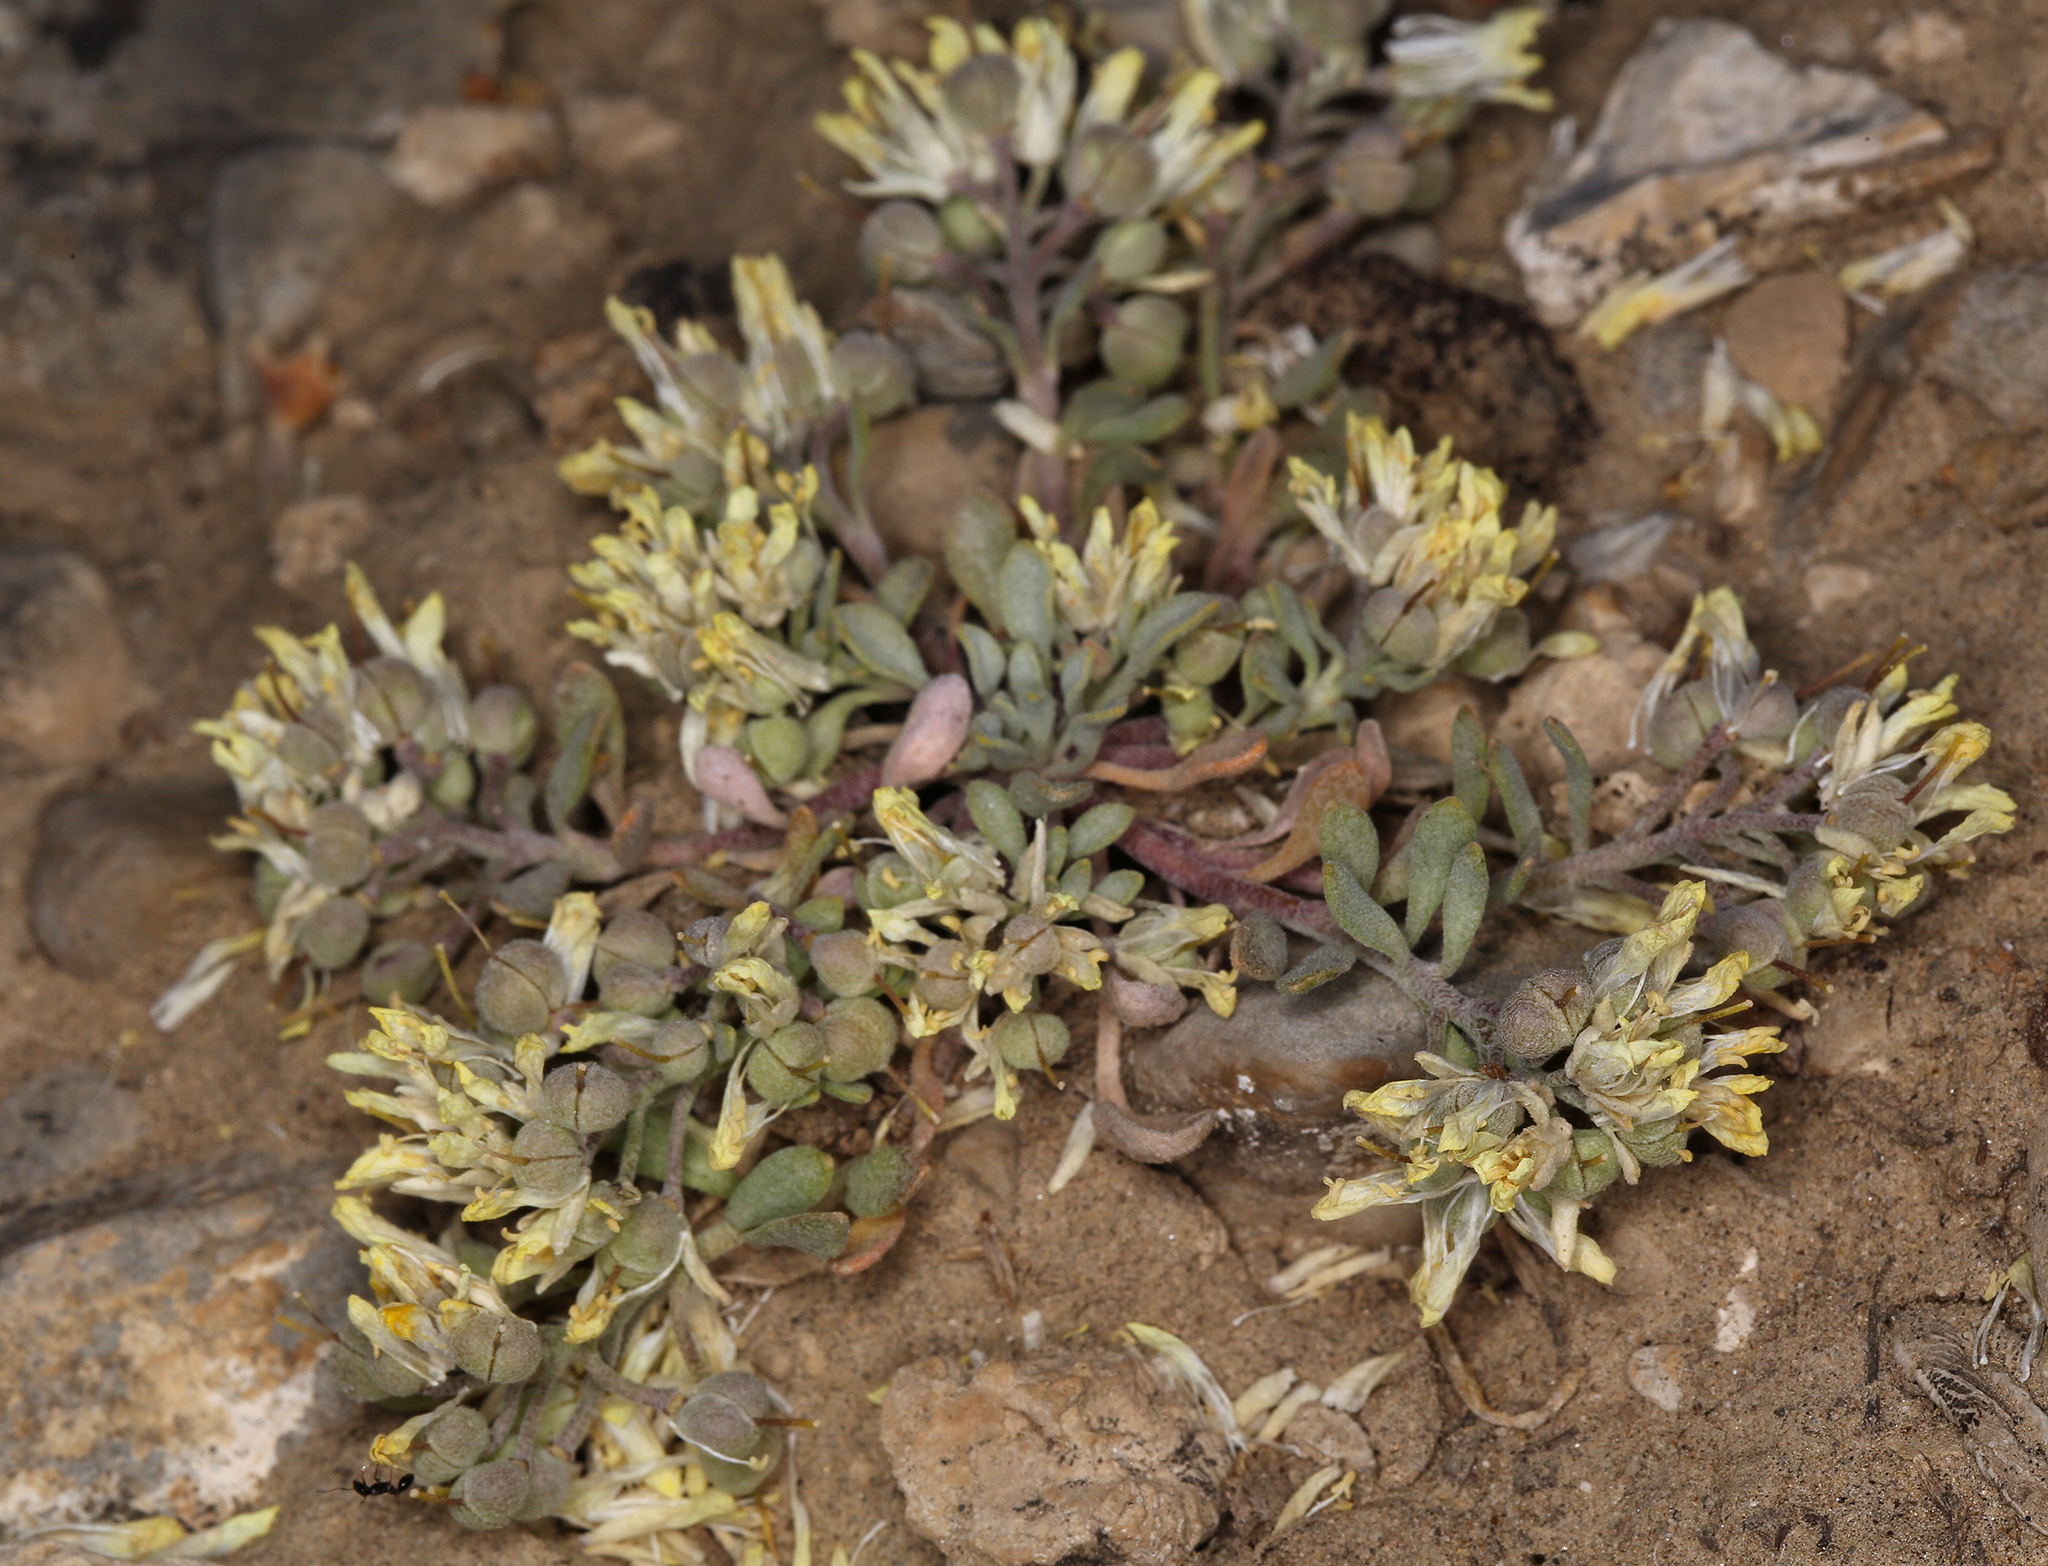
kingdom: Plantae
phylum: Tracheophyta
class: Magnoliopsida
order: Brassicales
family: Brassicaceae
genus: Physaria
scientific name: Physaria kingii
